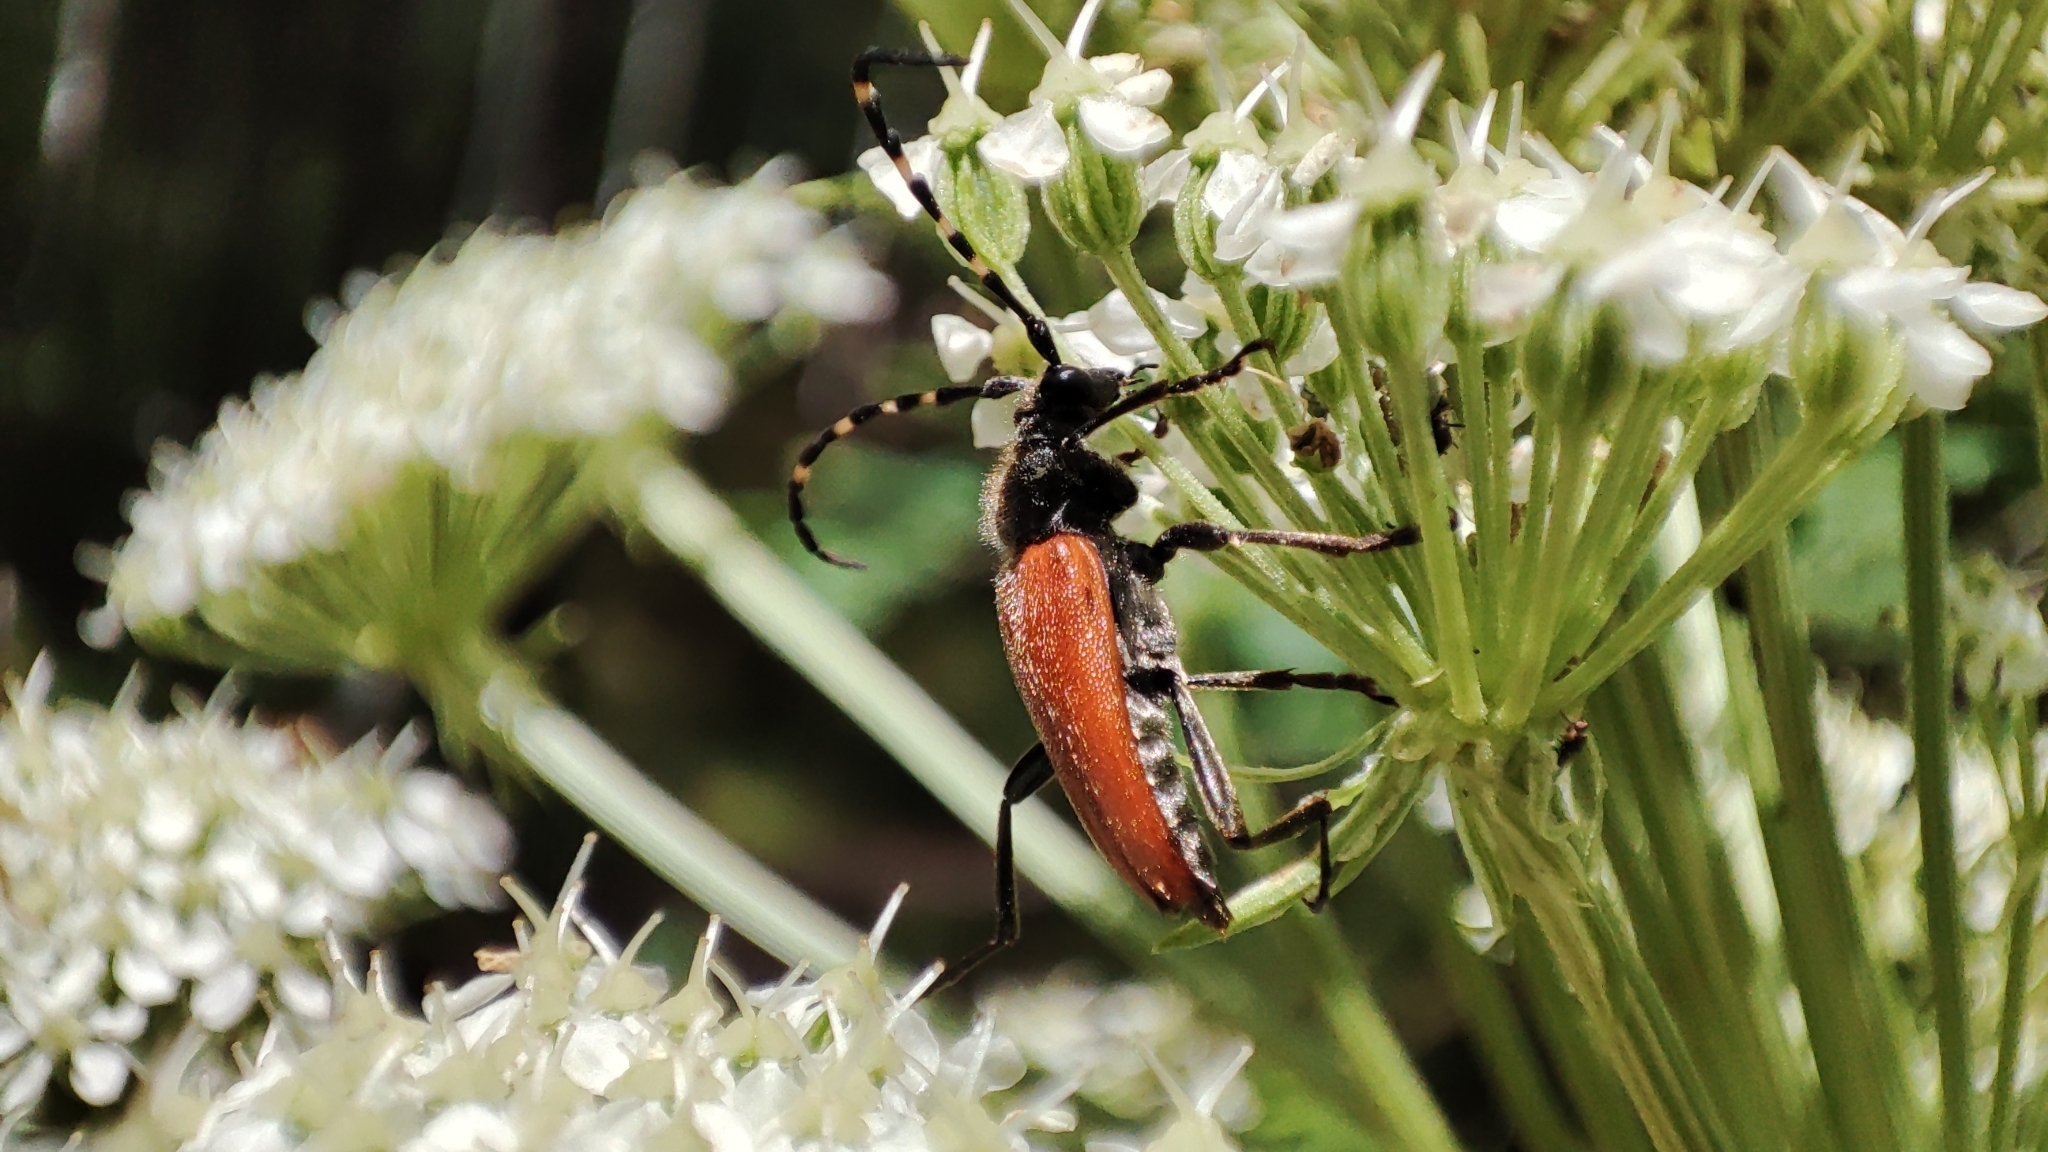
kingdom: Animalia
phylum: Arthropoda
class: Insecta
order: Coleoptera
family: Cerambycidae
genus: Stictoleptura
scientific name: Stictoleptura variicornis
